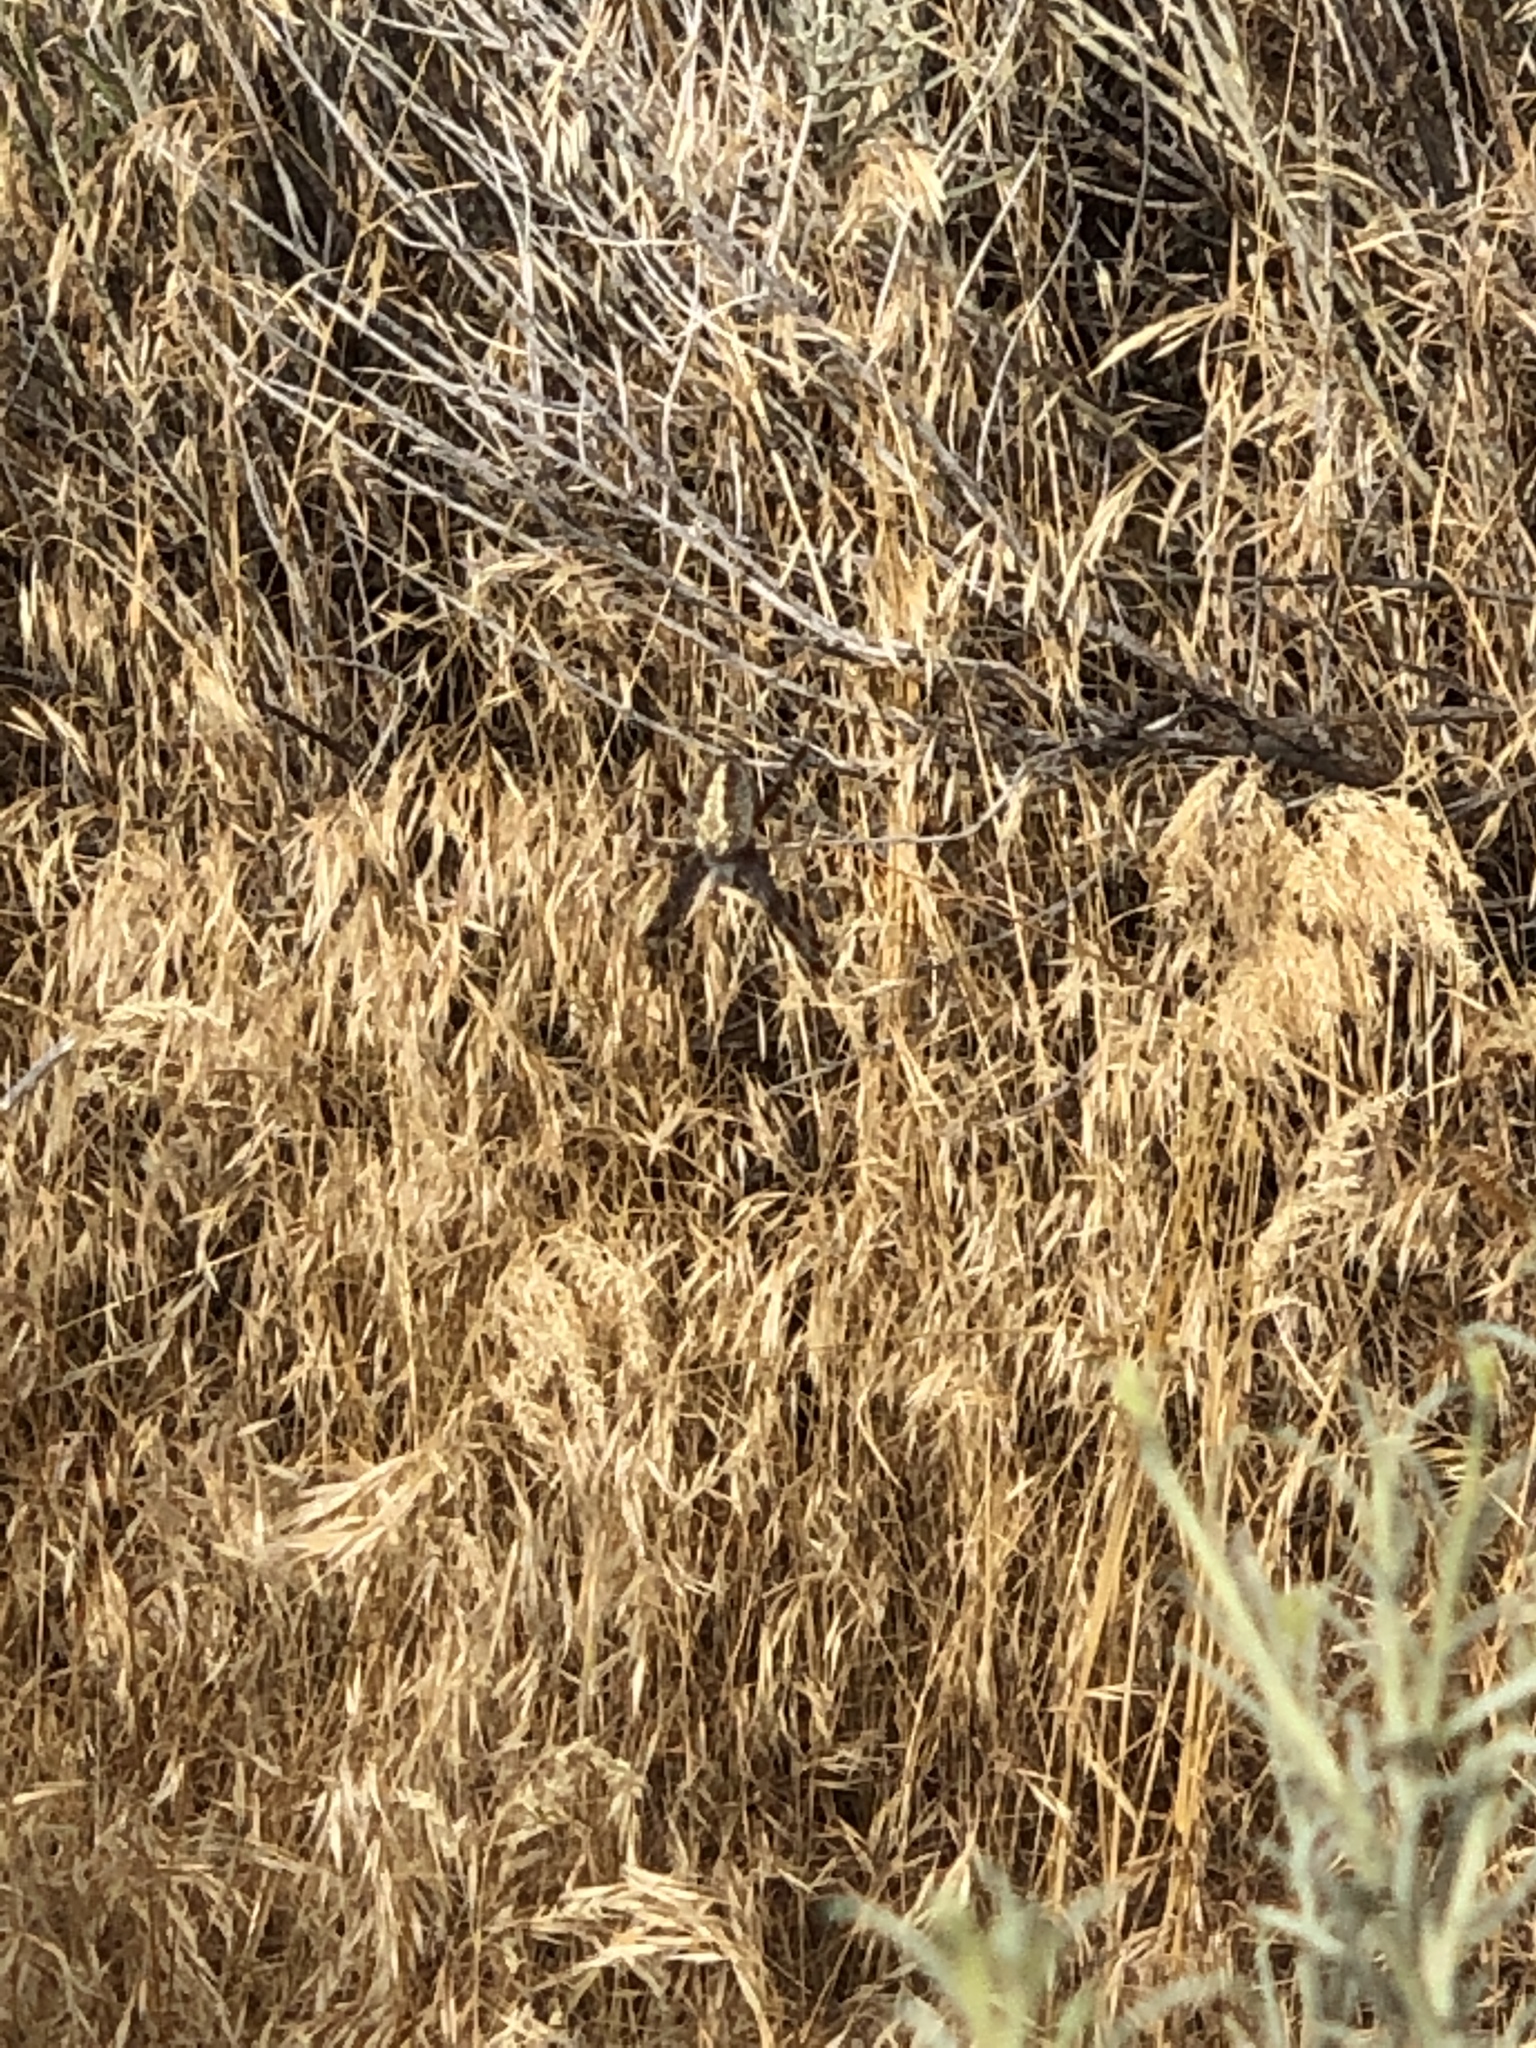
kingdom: Animalia
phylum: Arthropoda
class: Arachnida
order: Araneae
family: Araneidae
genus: Neoscona
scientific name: Neoscona oaxacensis
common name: Orb weavers
